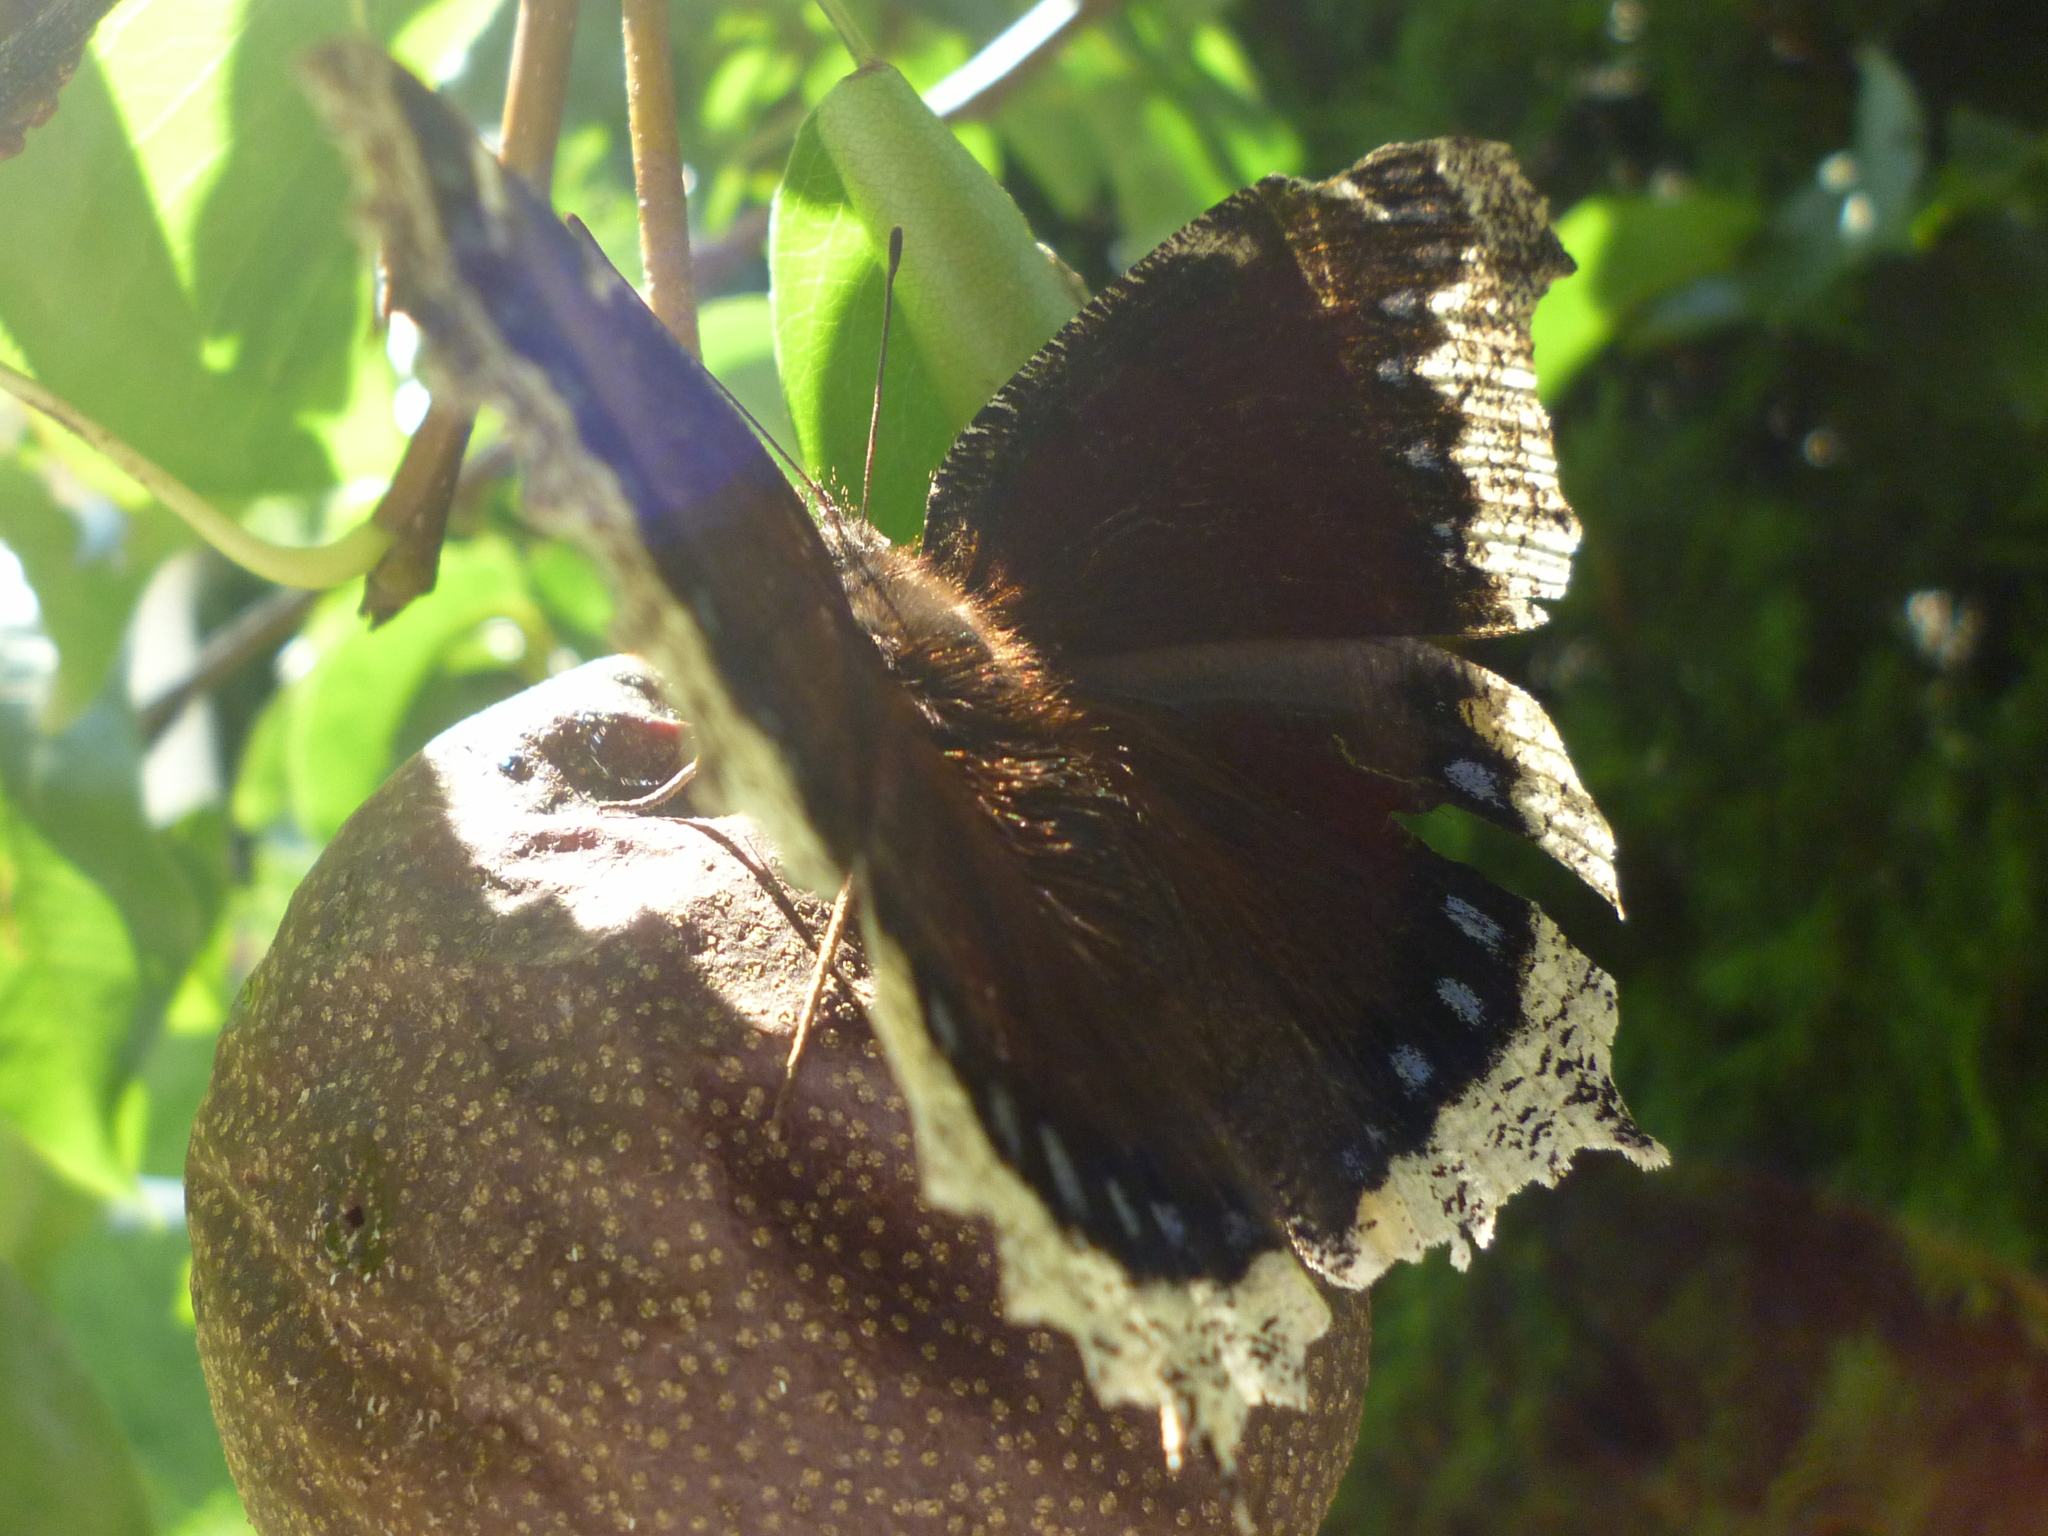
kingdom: Animalia
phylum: Arthropoda
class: Insecta
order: Lepidoptera
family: Nymphalidae
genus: Nymphalis
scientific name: Nymphalis antiopa
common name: Camberwell beauty
